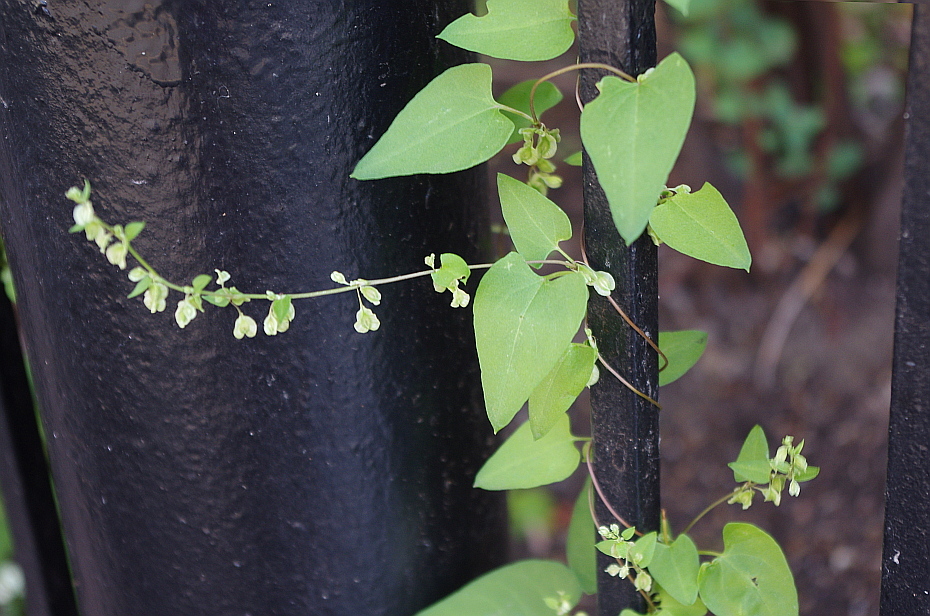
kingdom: Plantae
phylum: Tracheophyta
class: Magnoliopsida
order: Caryophyllales
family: Polygonaceae
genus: Fallopia
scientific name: Fallopia dumetorum
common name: Copse-bindweed
